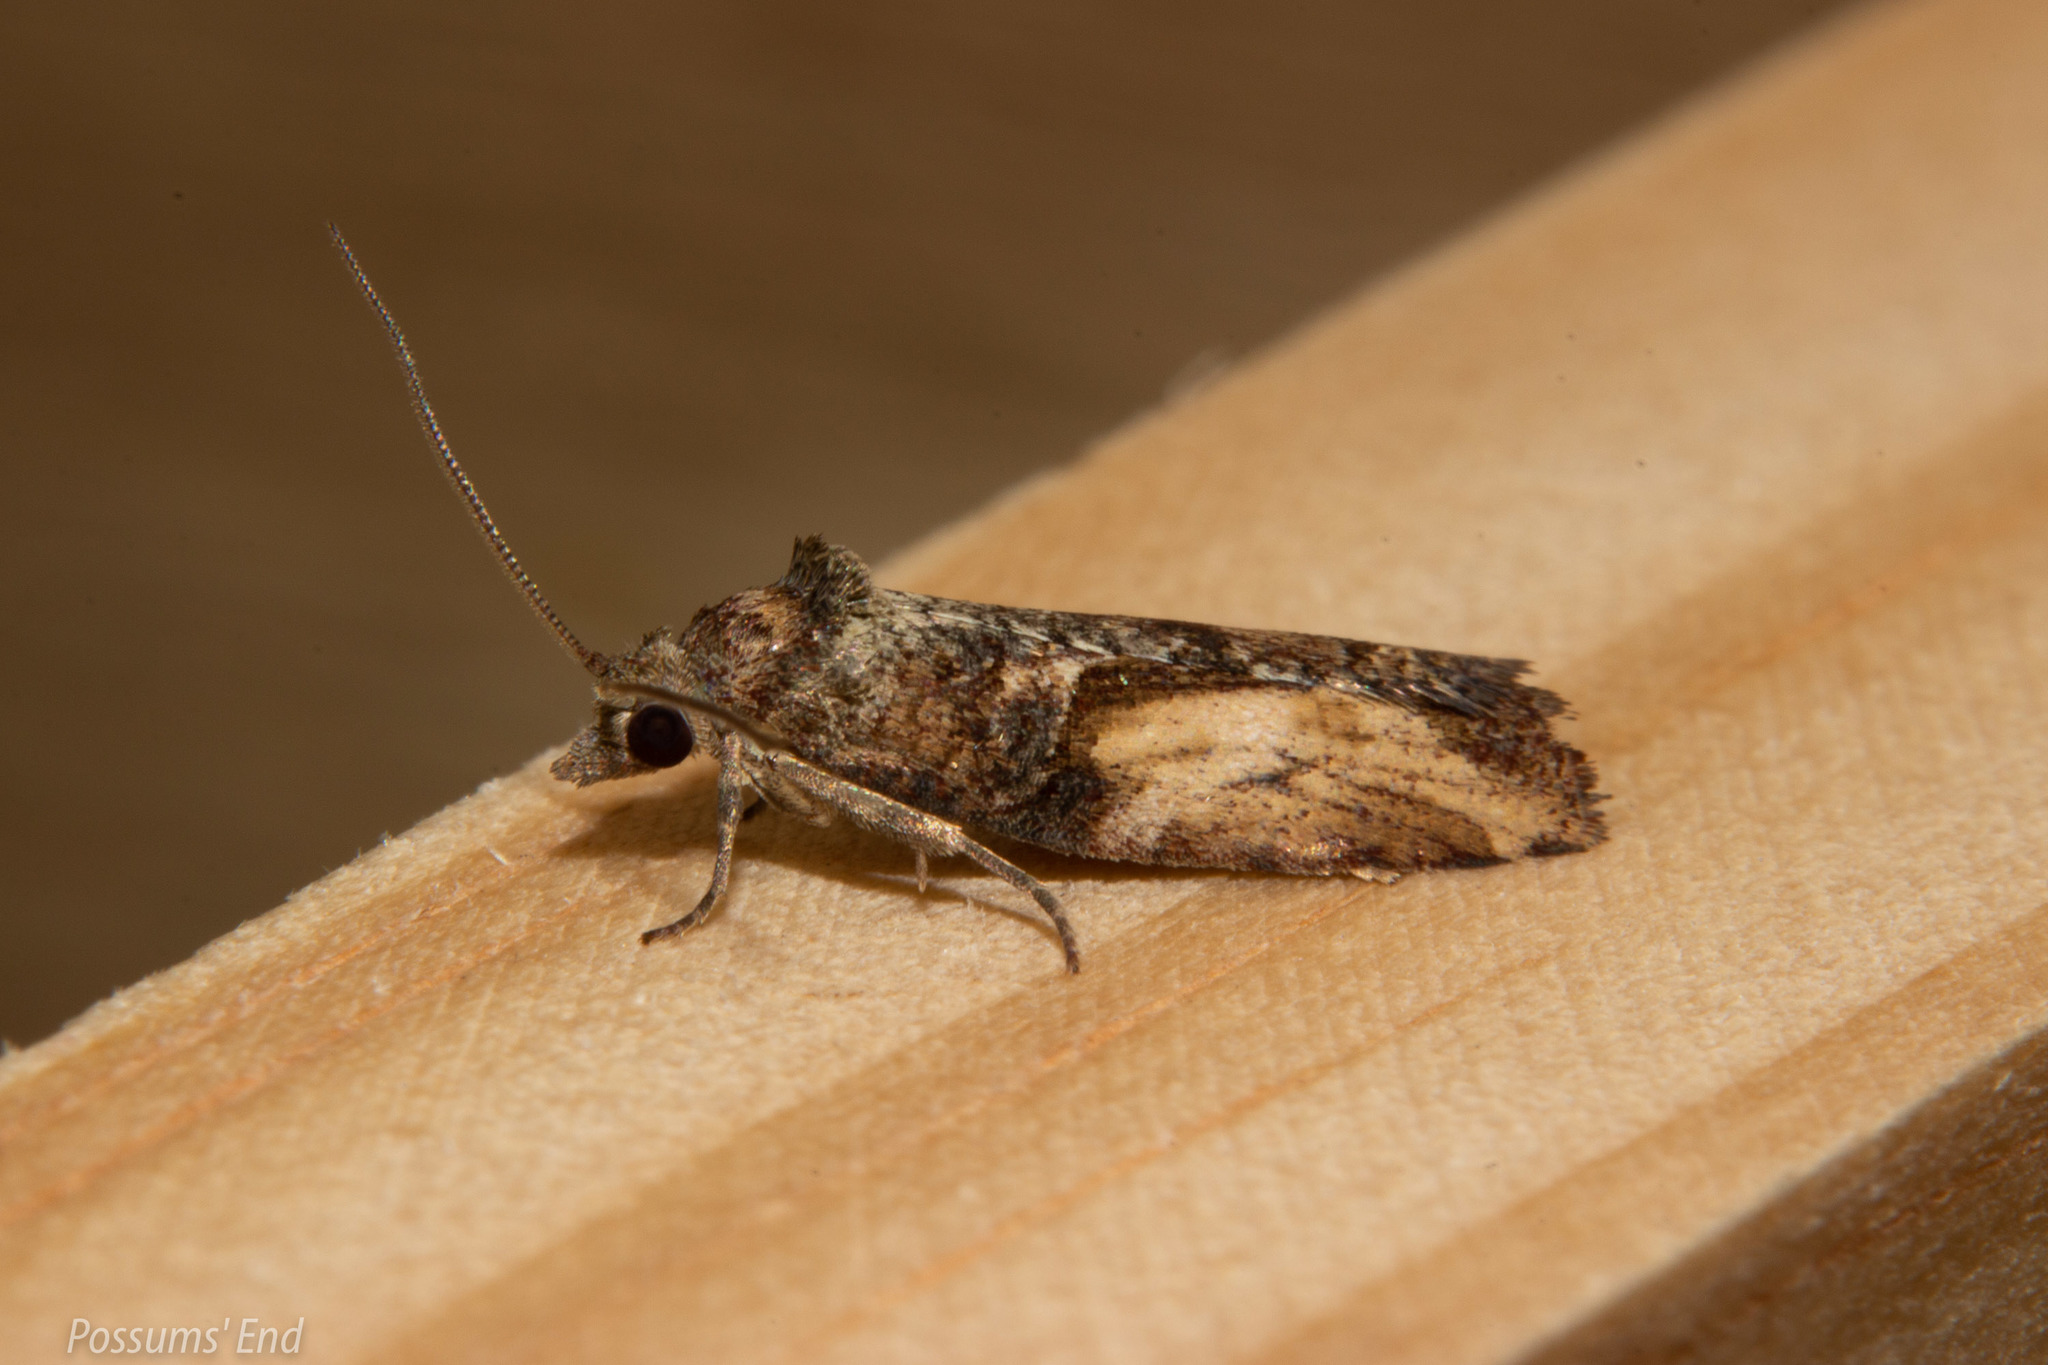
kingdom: Animalia
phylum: Arthropoda
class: Insecta
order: Lepidoptera
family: Tortricidae
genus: Harmologa
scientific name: Harmologa scoliastis
